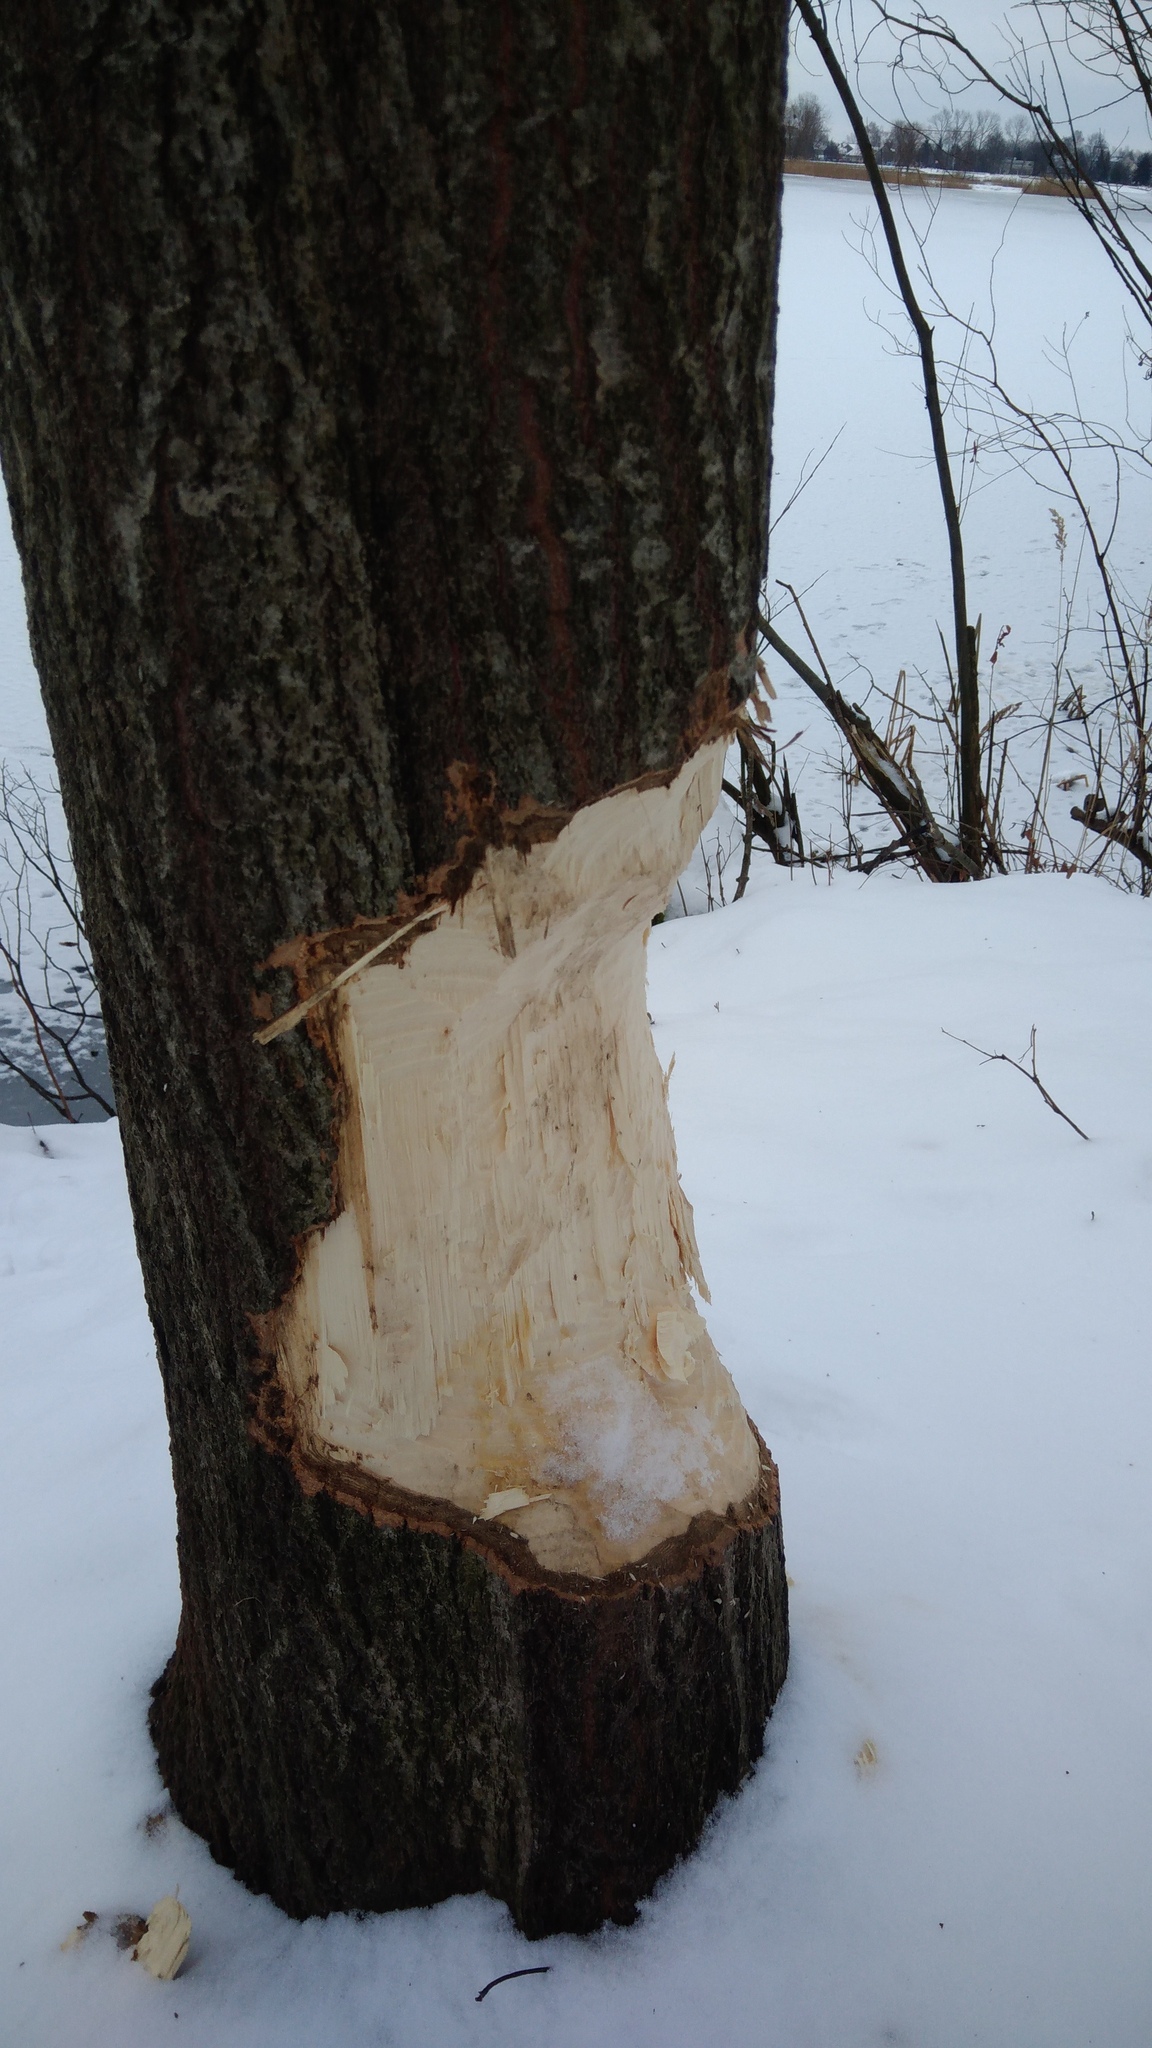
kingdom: Animalia
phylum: Chordata
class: Mammalia
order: Rodentia
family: Castoridae
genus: Castor
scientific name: Castor fiber
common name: Eurasian beaver
